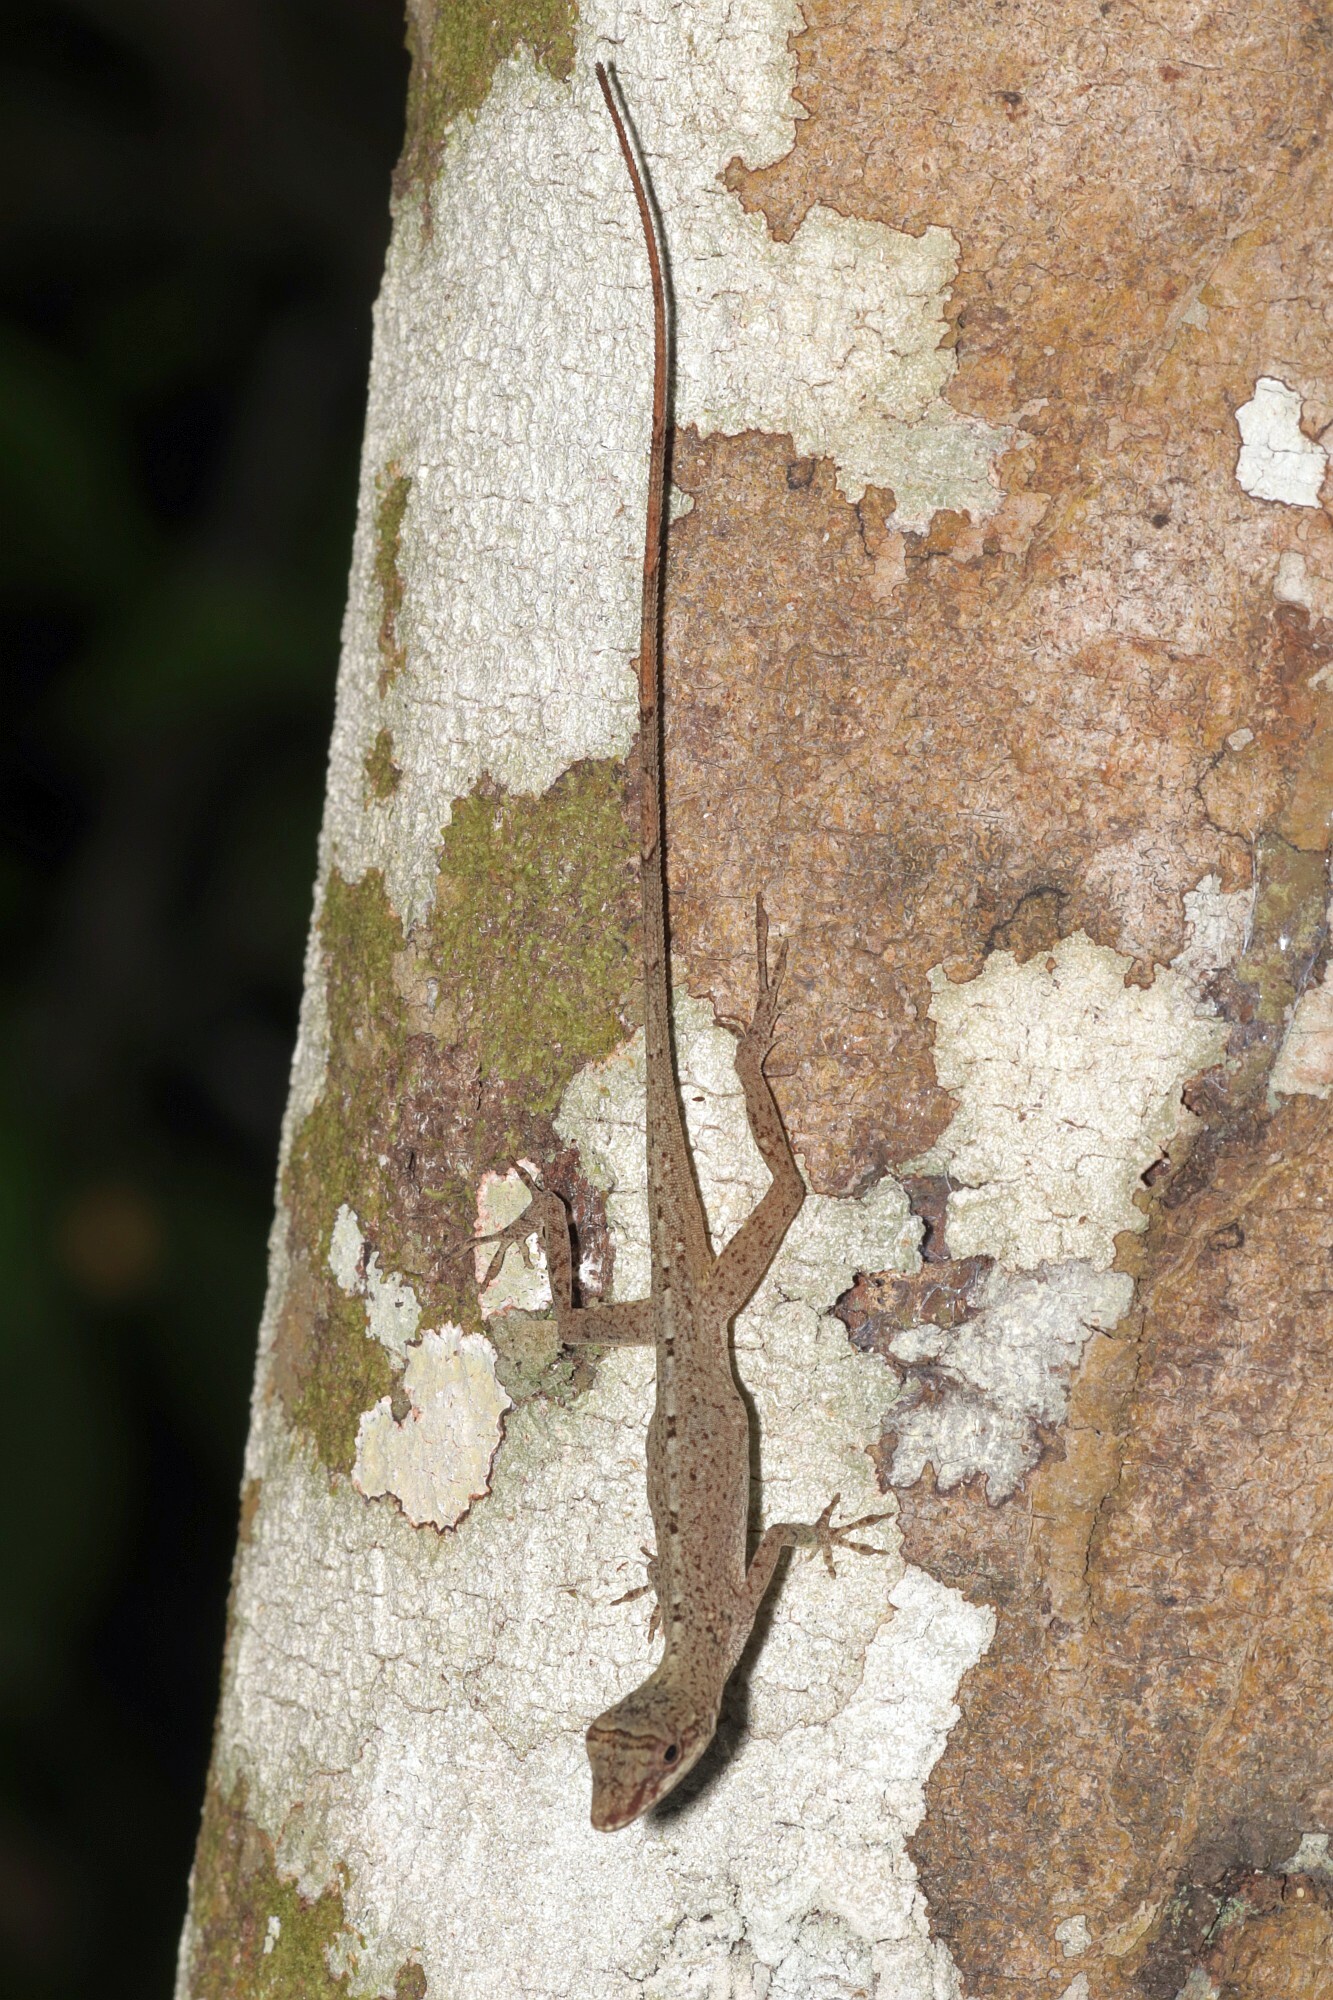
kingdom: Animalia
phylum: Chordata
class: Squamata
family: Dactyloidae
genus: Anolis
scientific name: Anolis fuscoauratus
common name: Brown-eared anole
